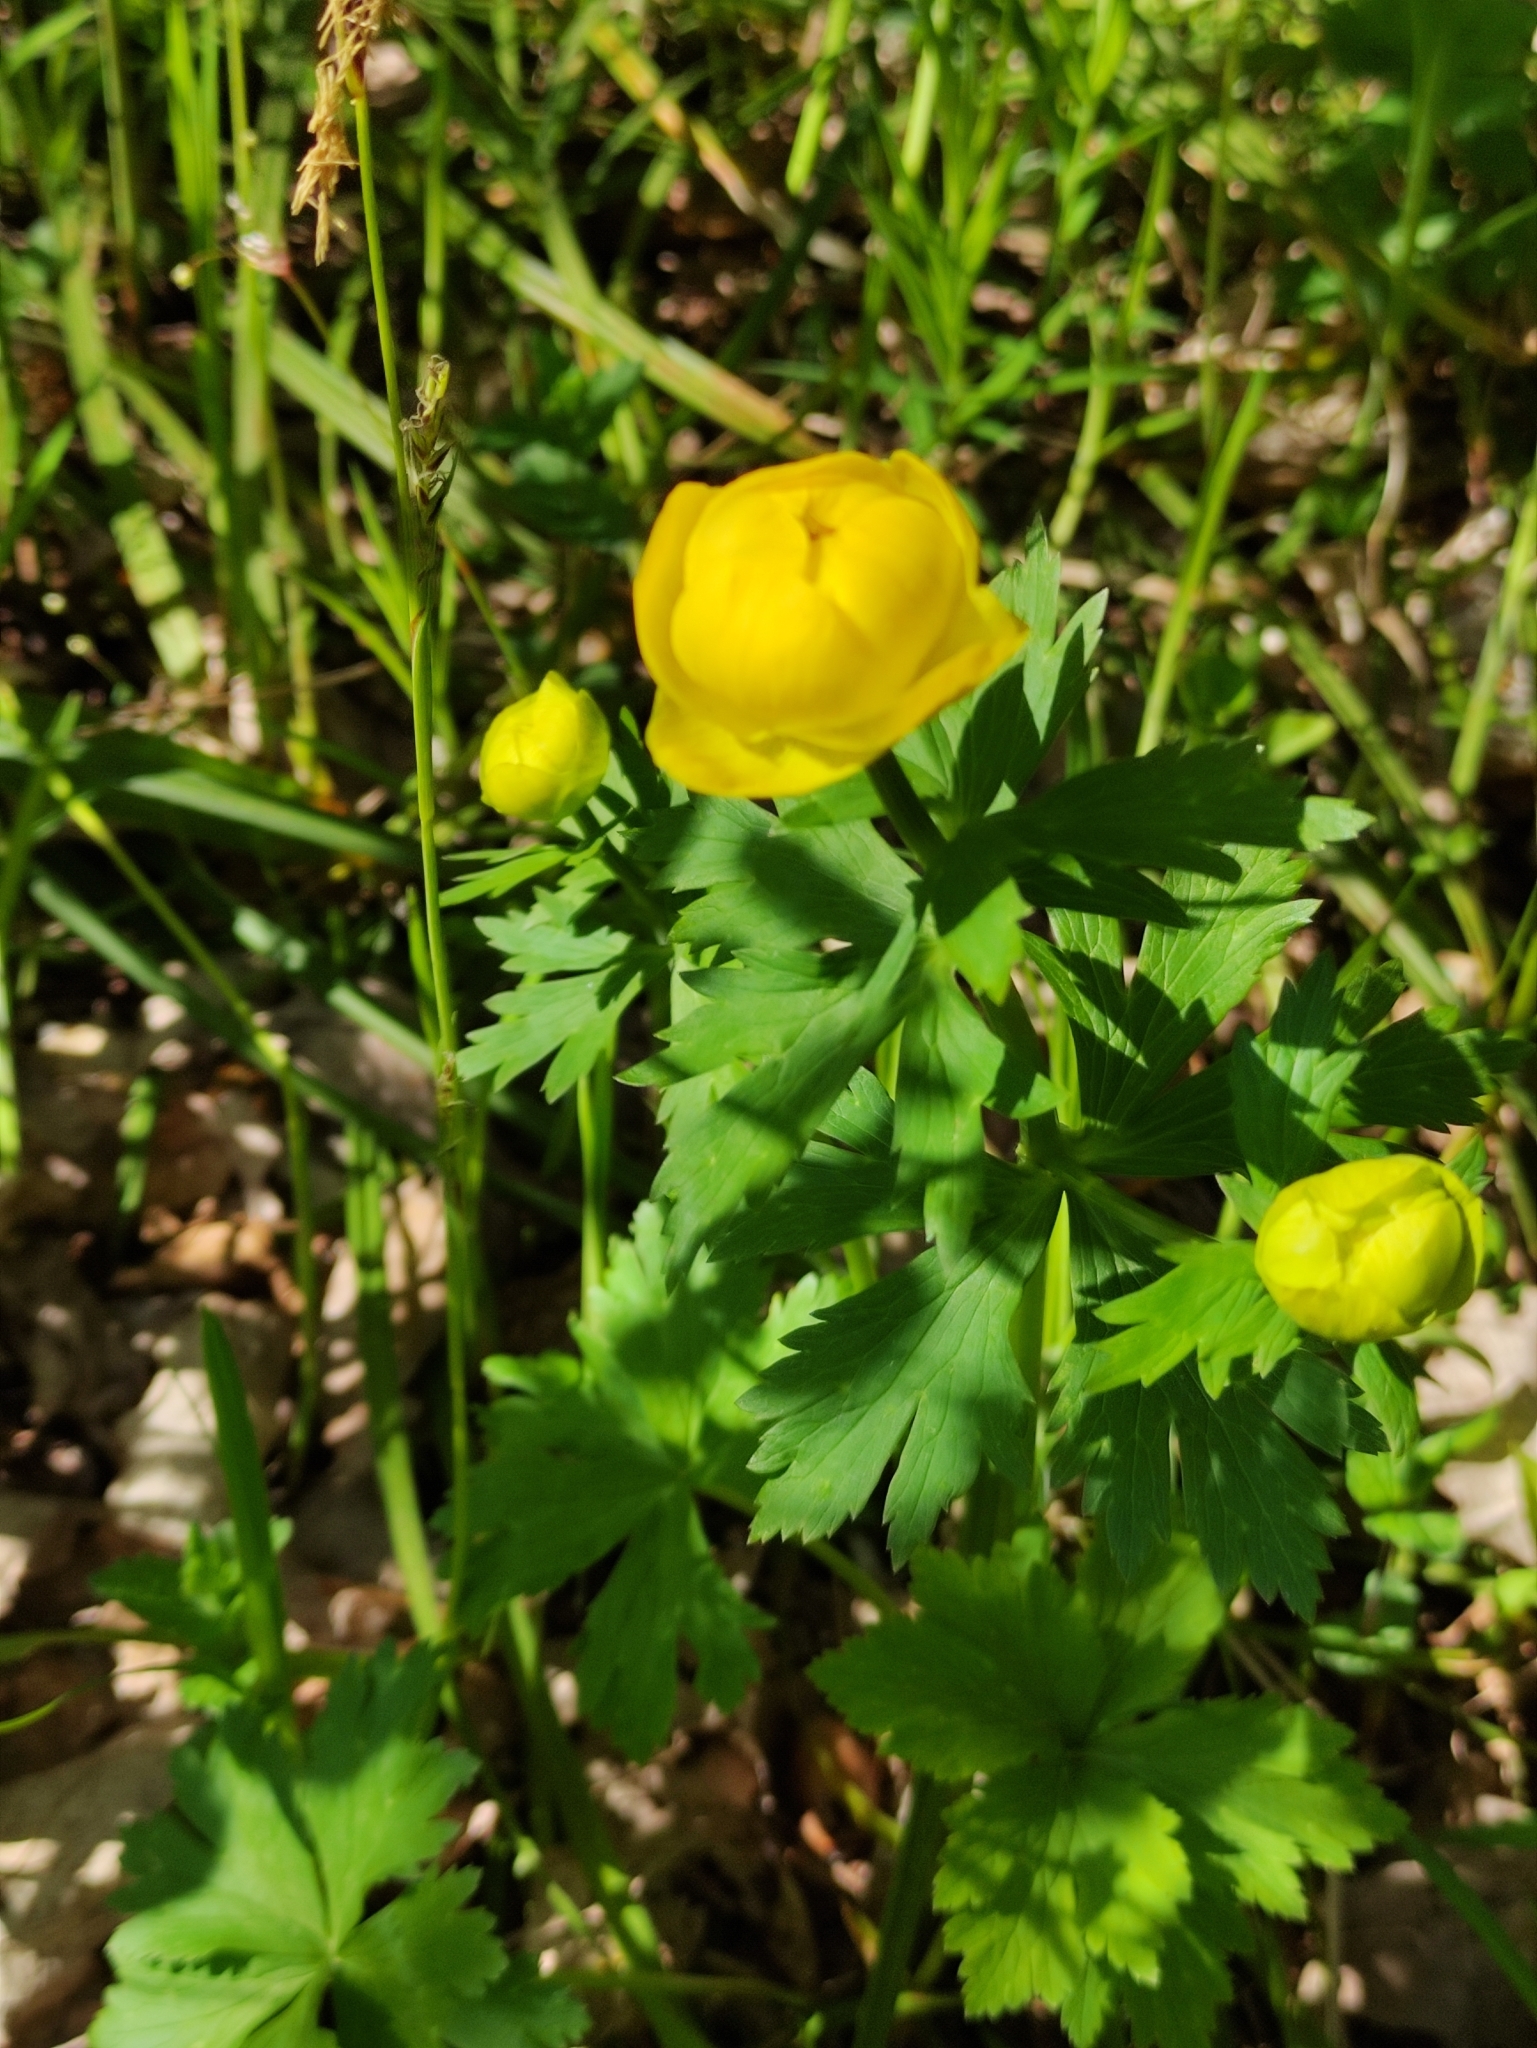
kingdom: Plantae
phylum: Tracheophyta
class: Magnoliopsida
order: Ranunculales
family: Ranunculaceae
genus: Trollius
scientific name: Trollius europaeus
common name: European globeflower
